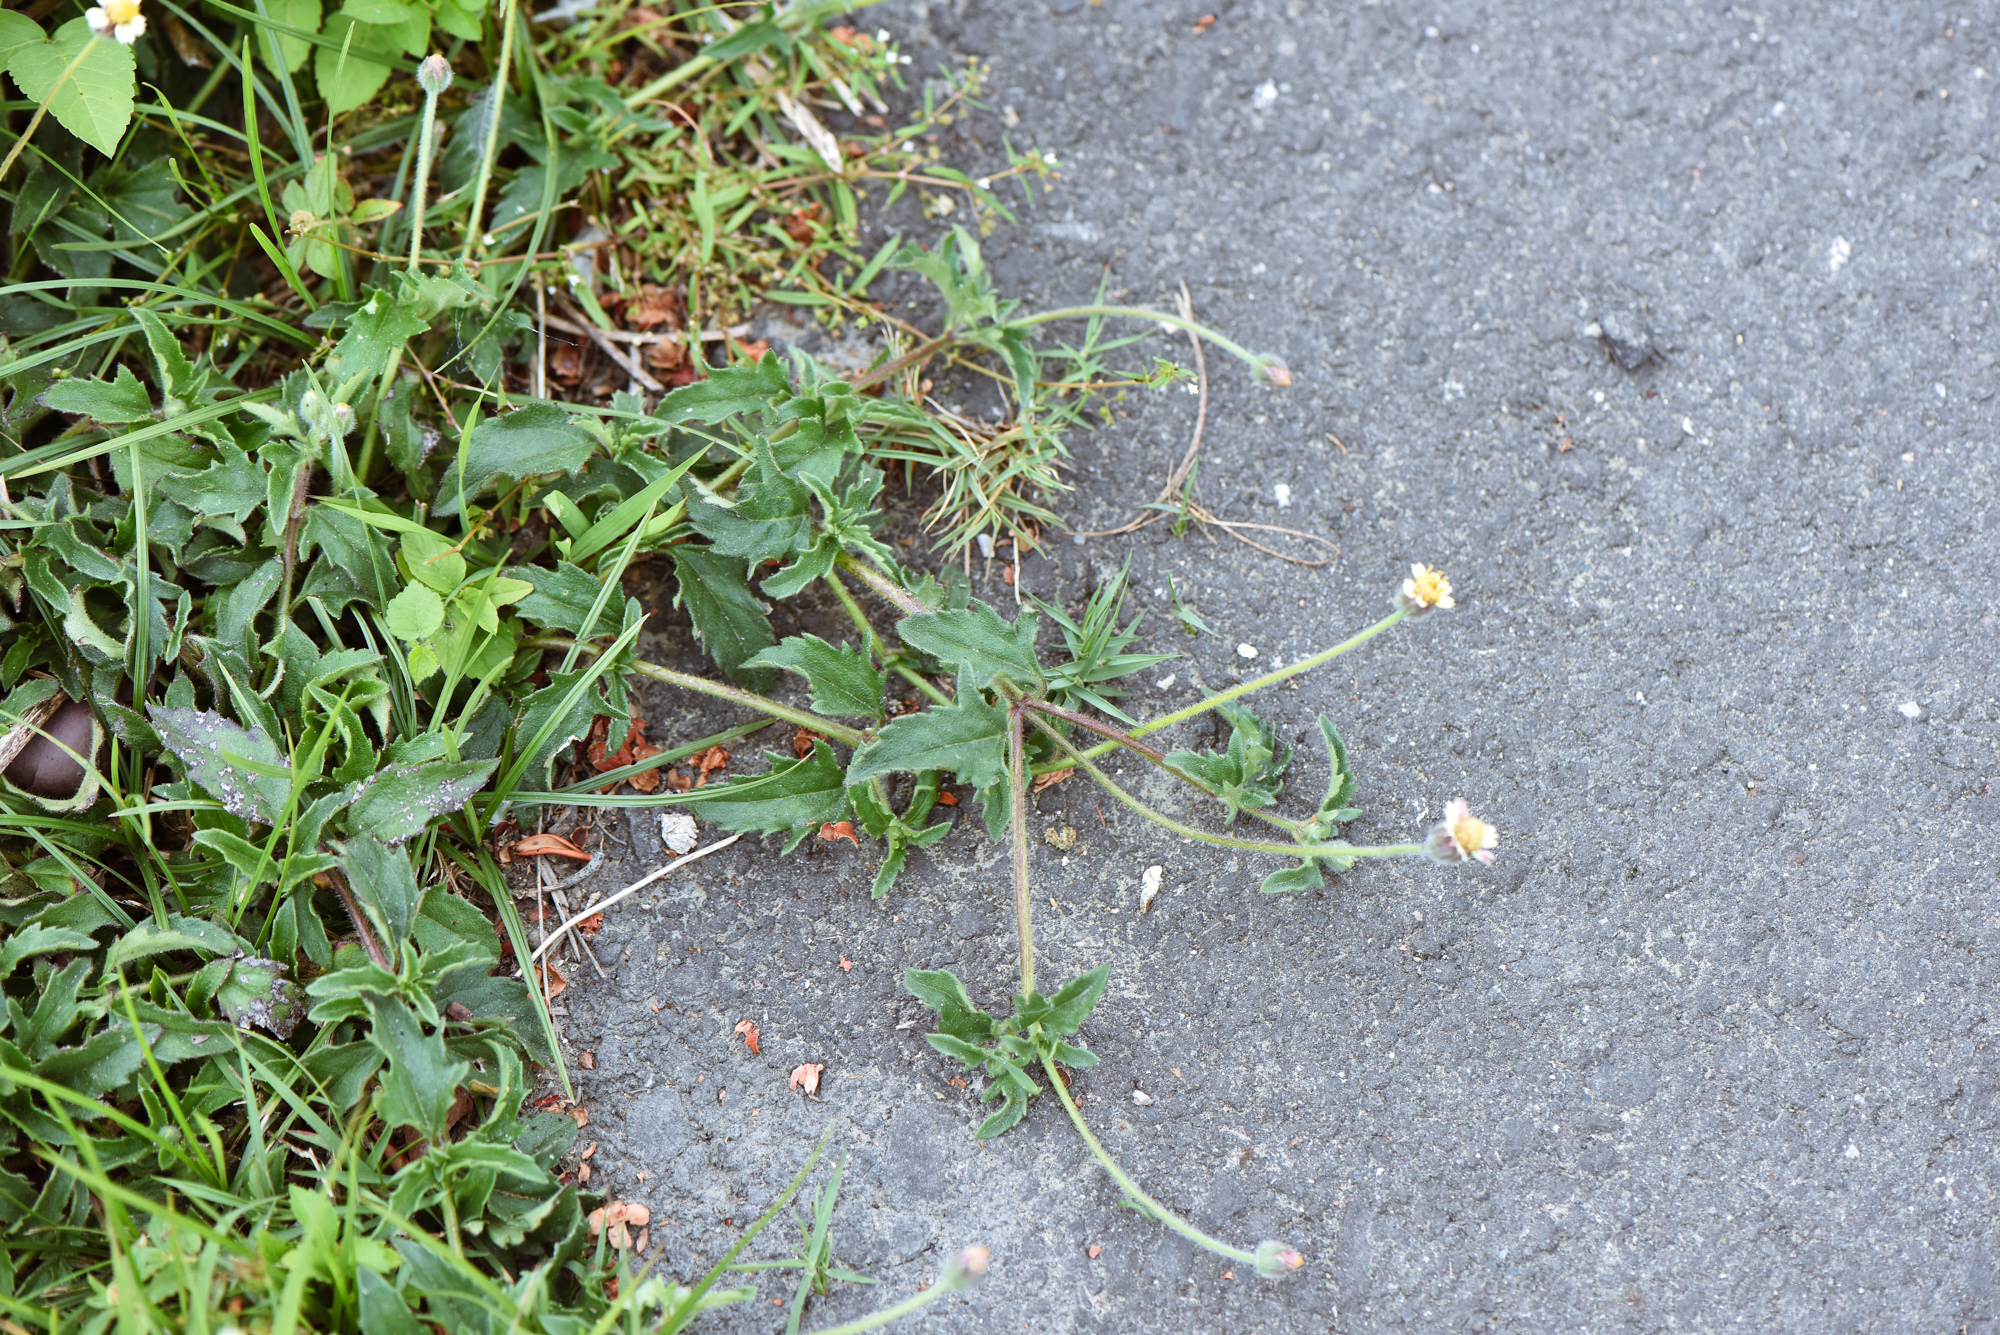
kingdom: Plantae
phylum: Tracheophyta
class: Magnoliopsida
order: Asterales
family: Asteraceae
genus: Tridax
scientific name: Tridax procumbens
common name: Coatbuttons
